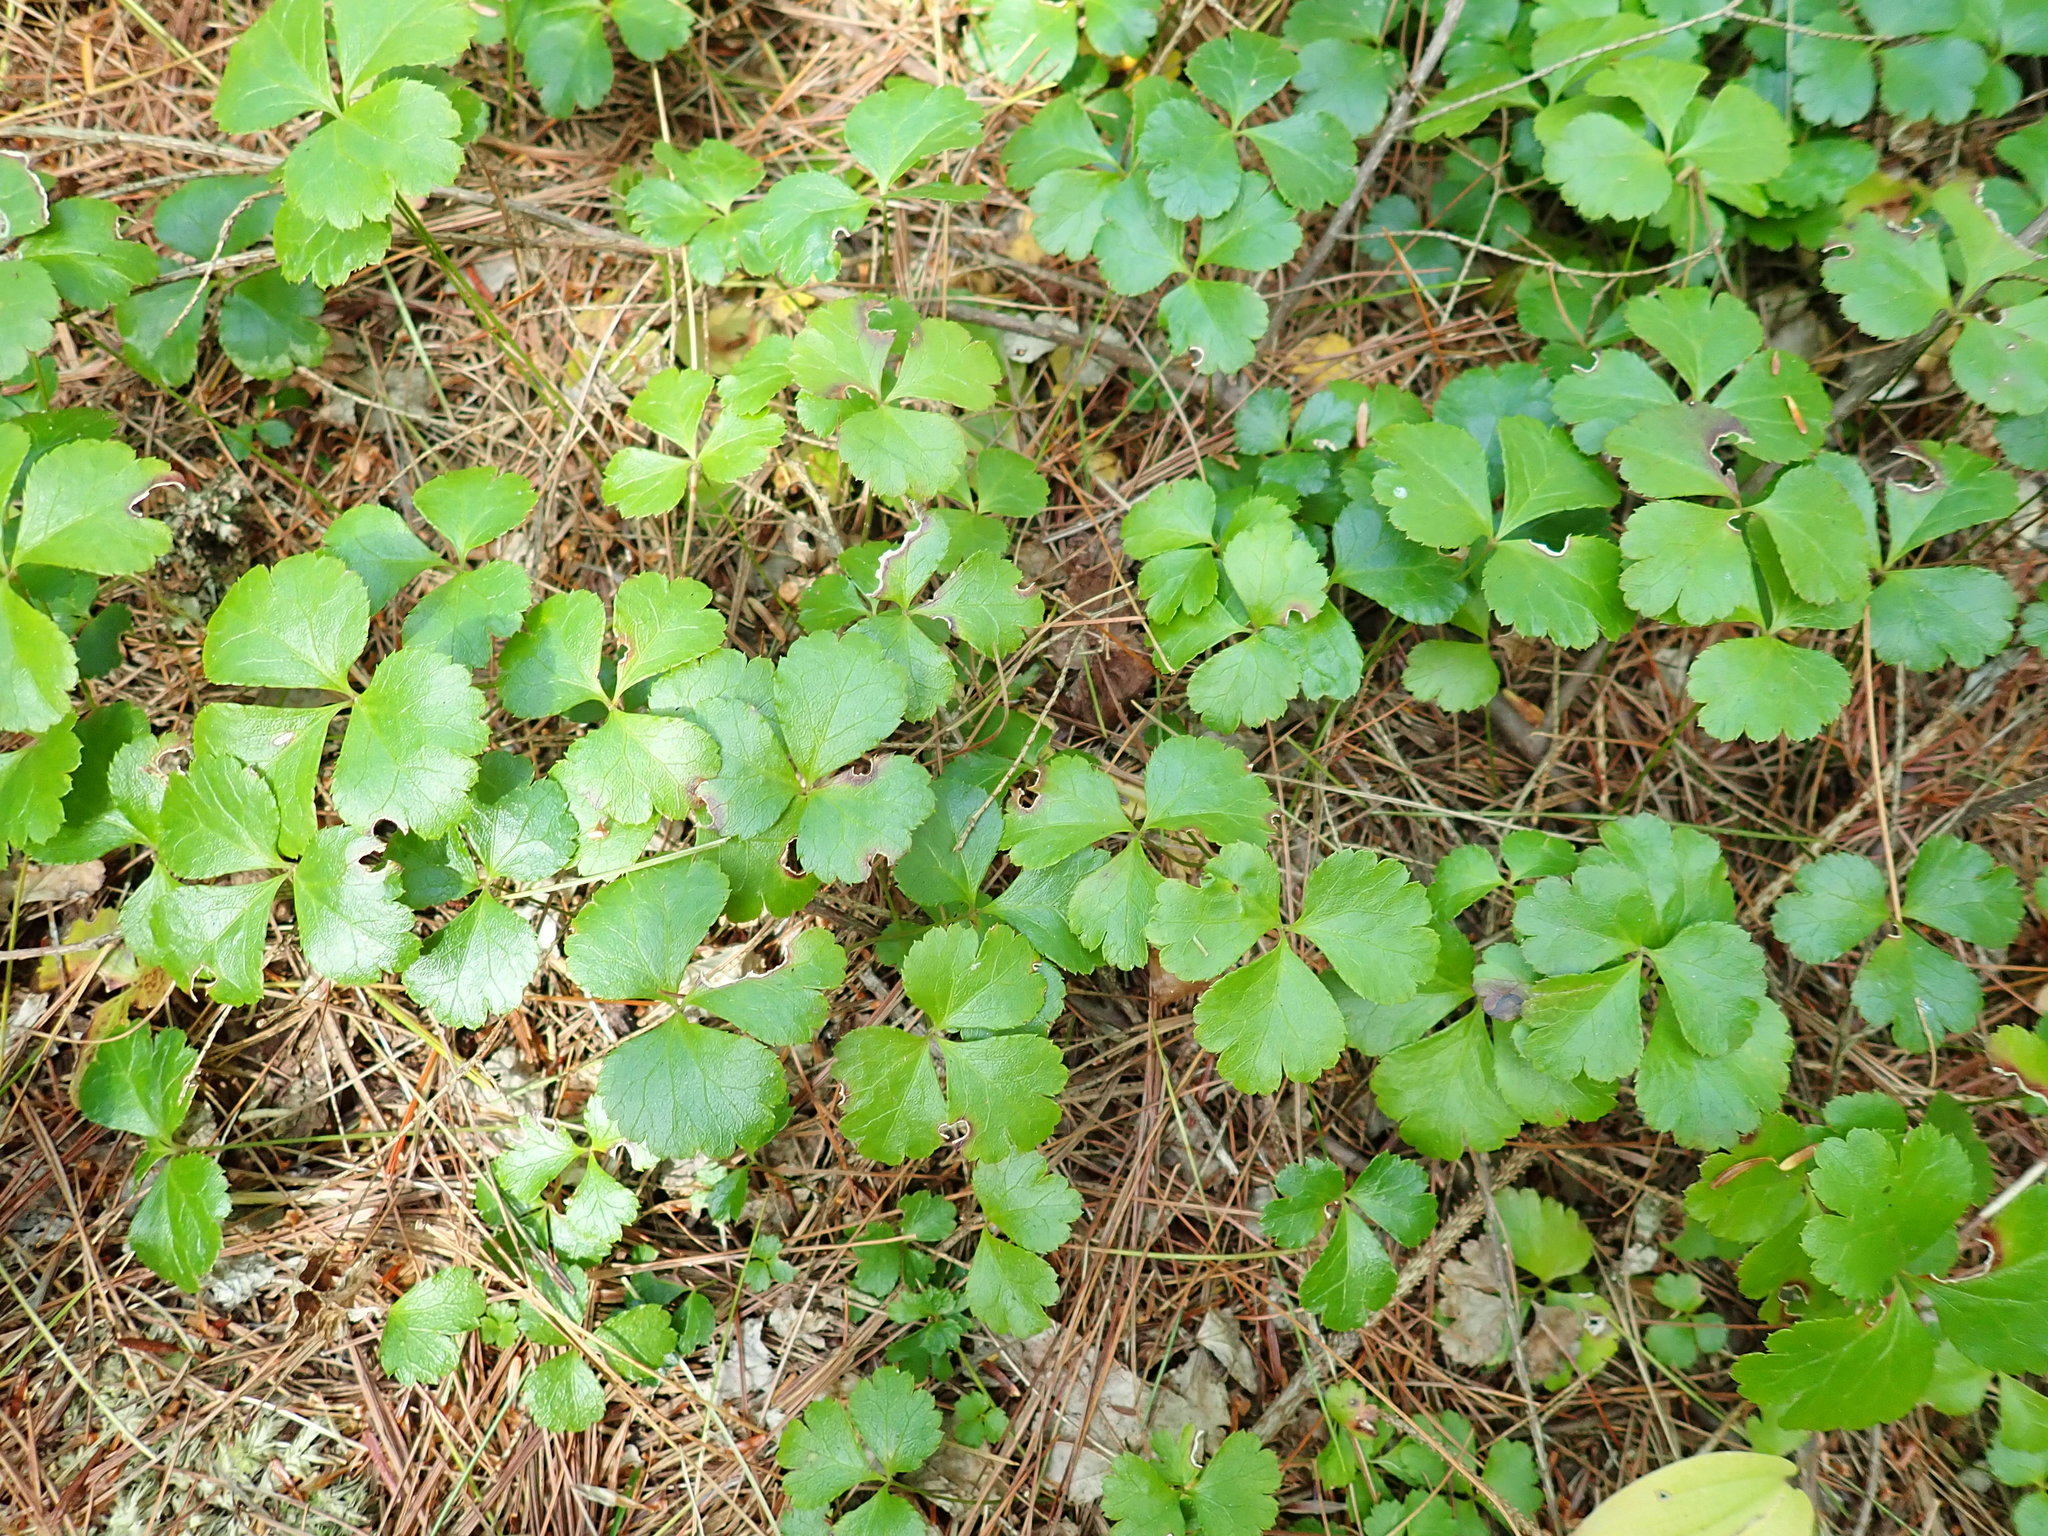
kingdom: Plantae
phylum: Tracheophyta
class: Magnoliopsida
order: Ranunculales
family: Ranunculaceae
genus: Coptis
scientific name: Coptis trifolia
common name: Canker-root
